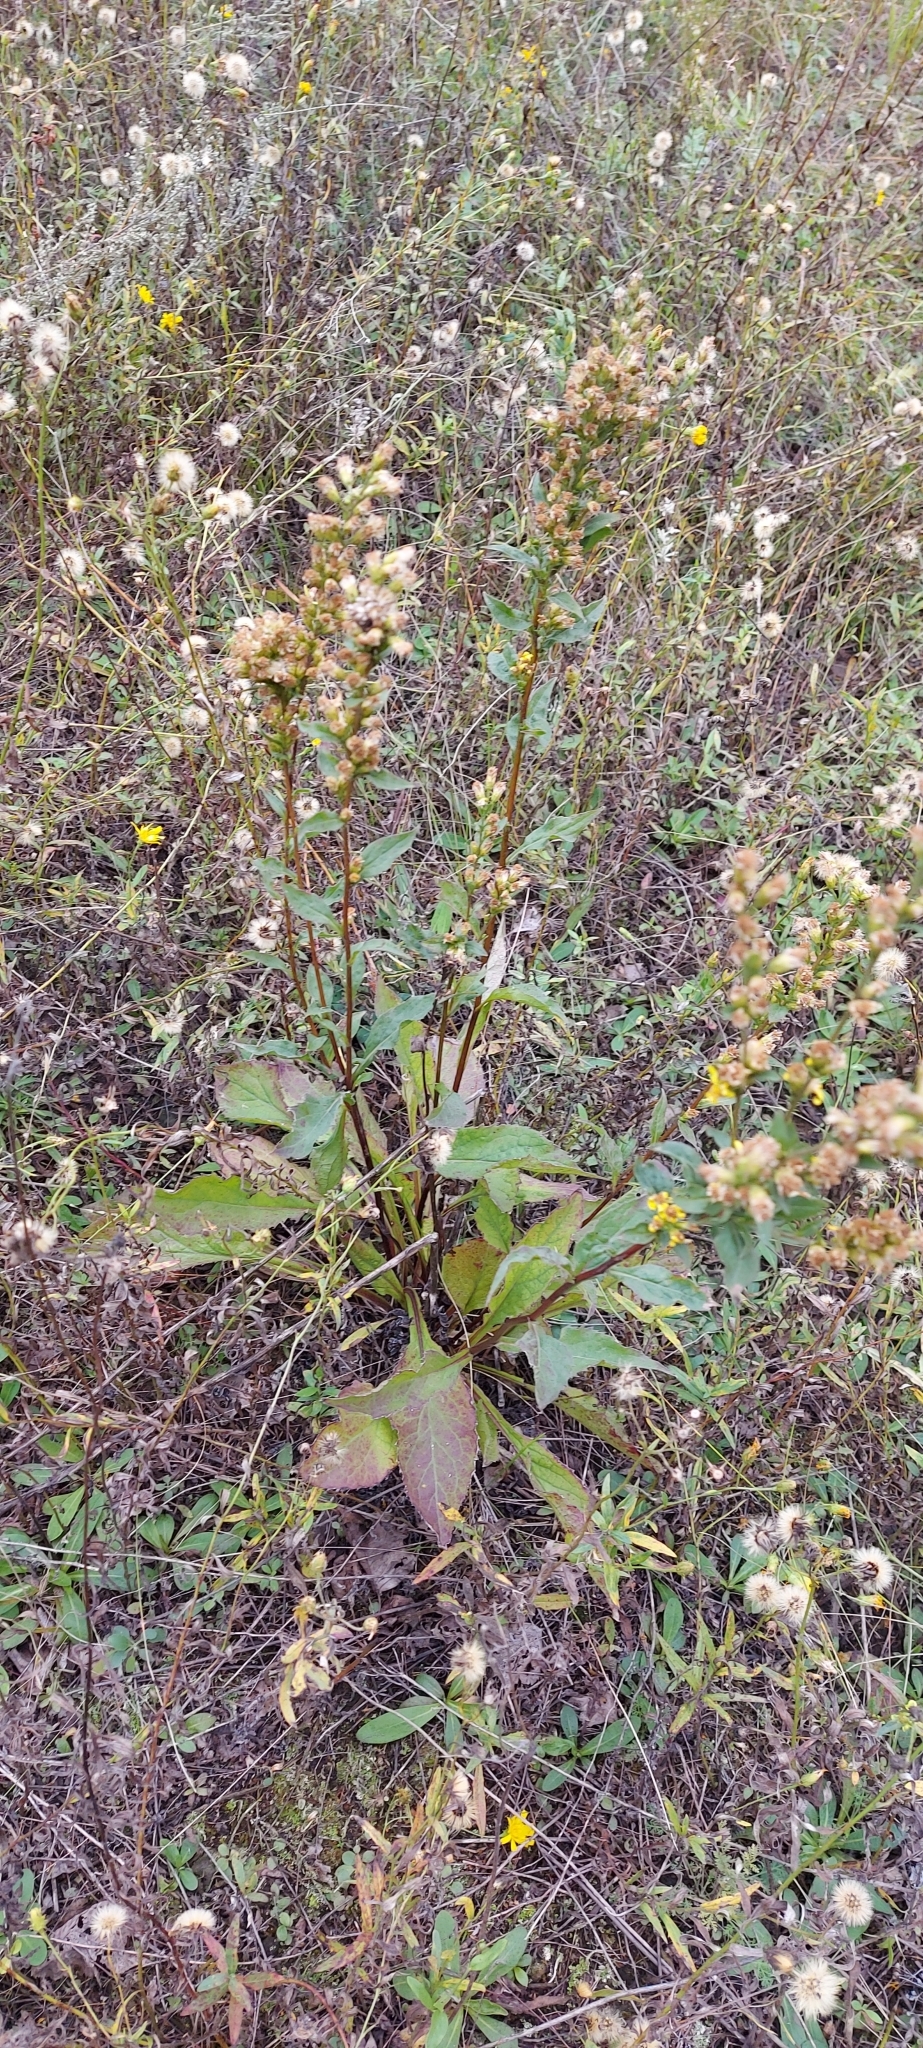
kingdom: Plantae
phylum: Tracheophyta
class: Magnoliopsida
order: Asterales
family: Asteraceae
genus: Solidago
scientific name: Solidago virgaurea
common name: Goldenrod
